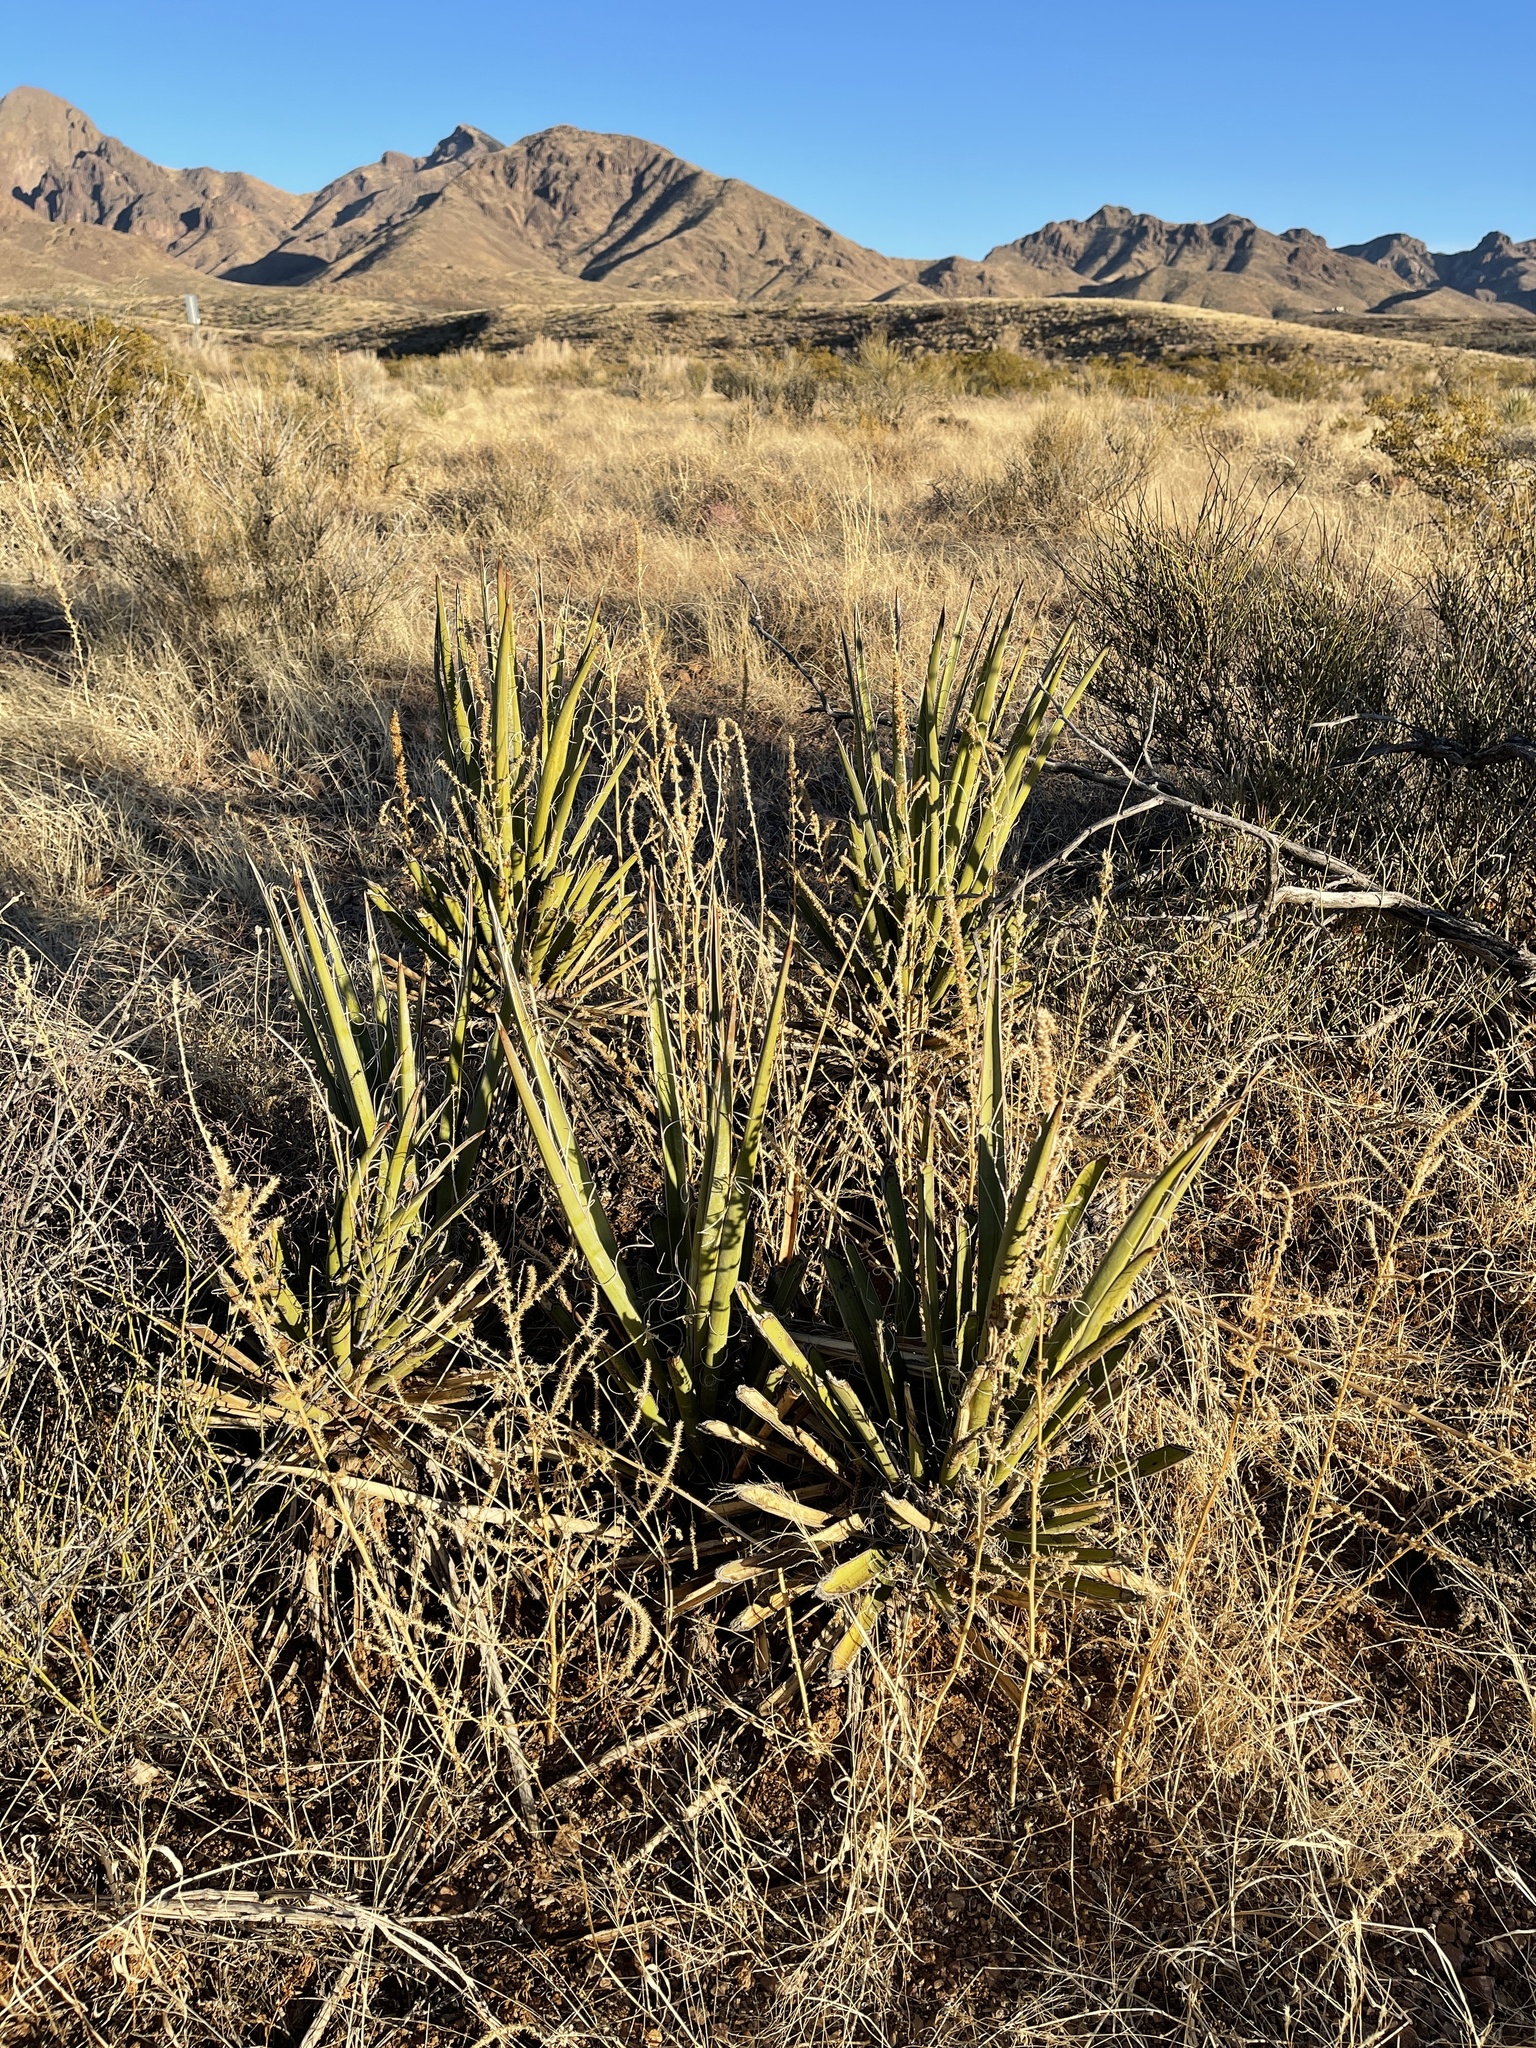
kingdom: Plantae
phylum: Tracheophyta
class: Liliopsida
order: Asparagales
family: Asparagaceae
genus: Yucca
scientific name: Yucca baccata
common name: Banana yucca
